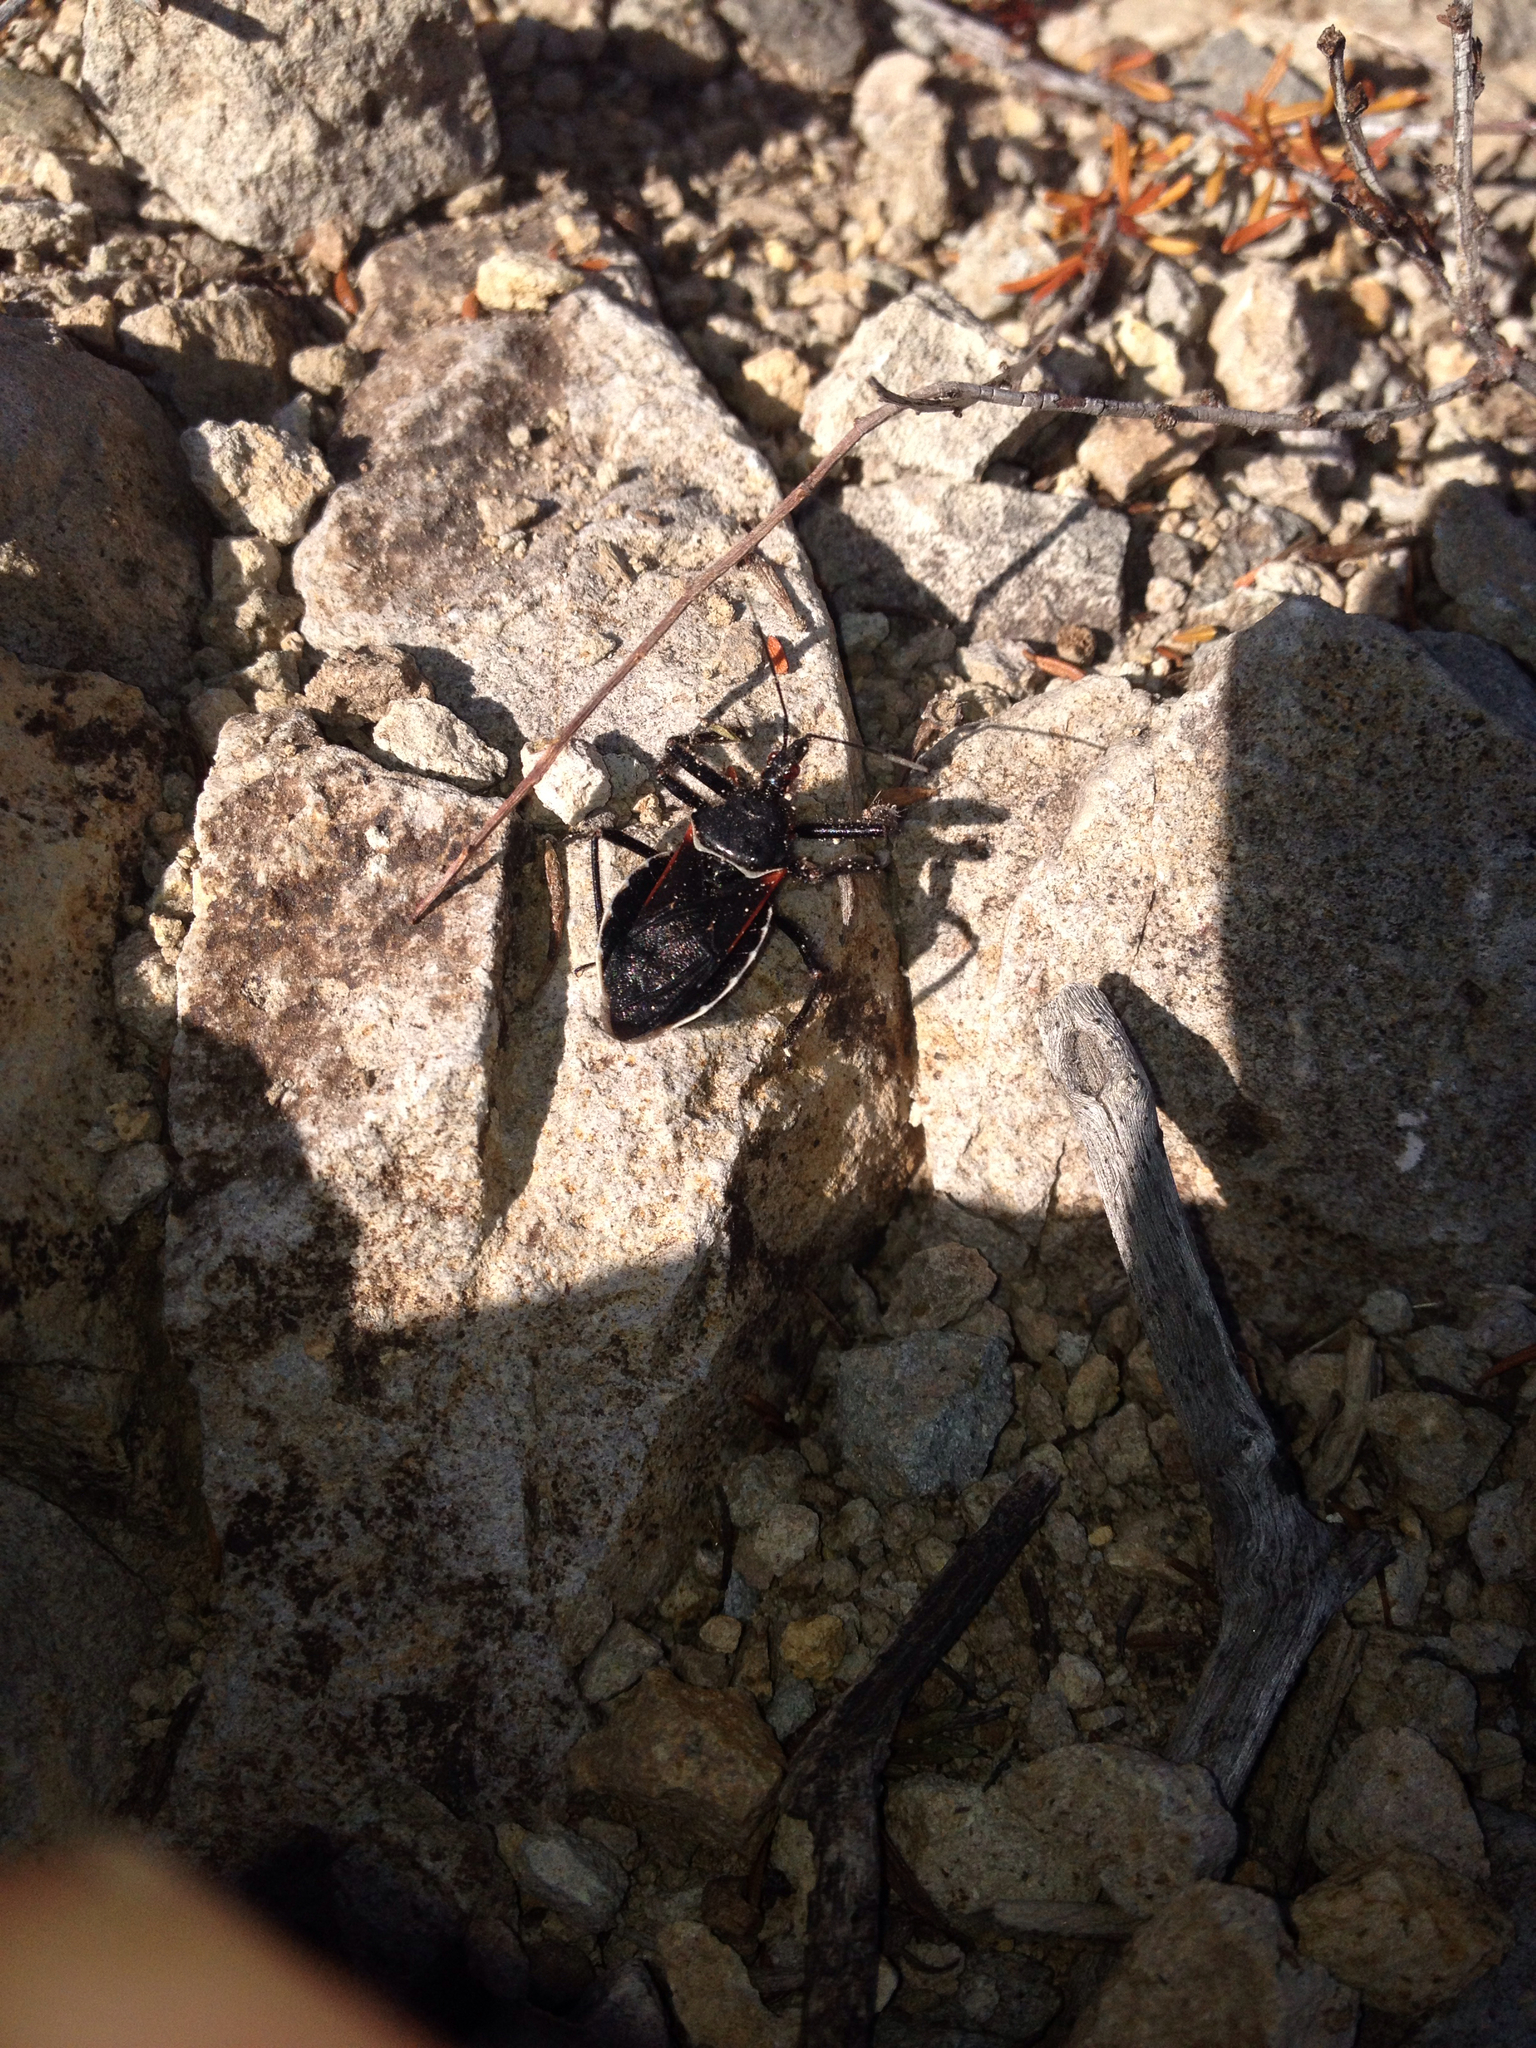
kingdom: Animalia
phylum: Arthropoda
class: Insecta
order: Hemiptera
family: Reduviidae
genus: Apiomerus
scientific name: Apiomerus californicus
